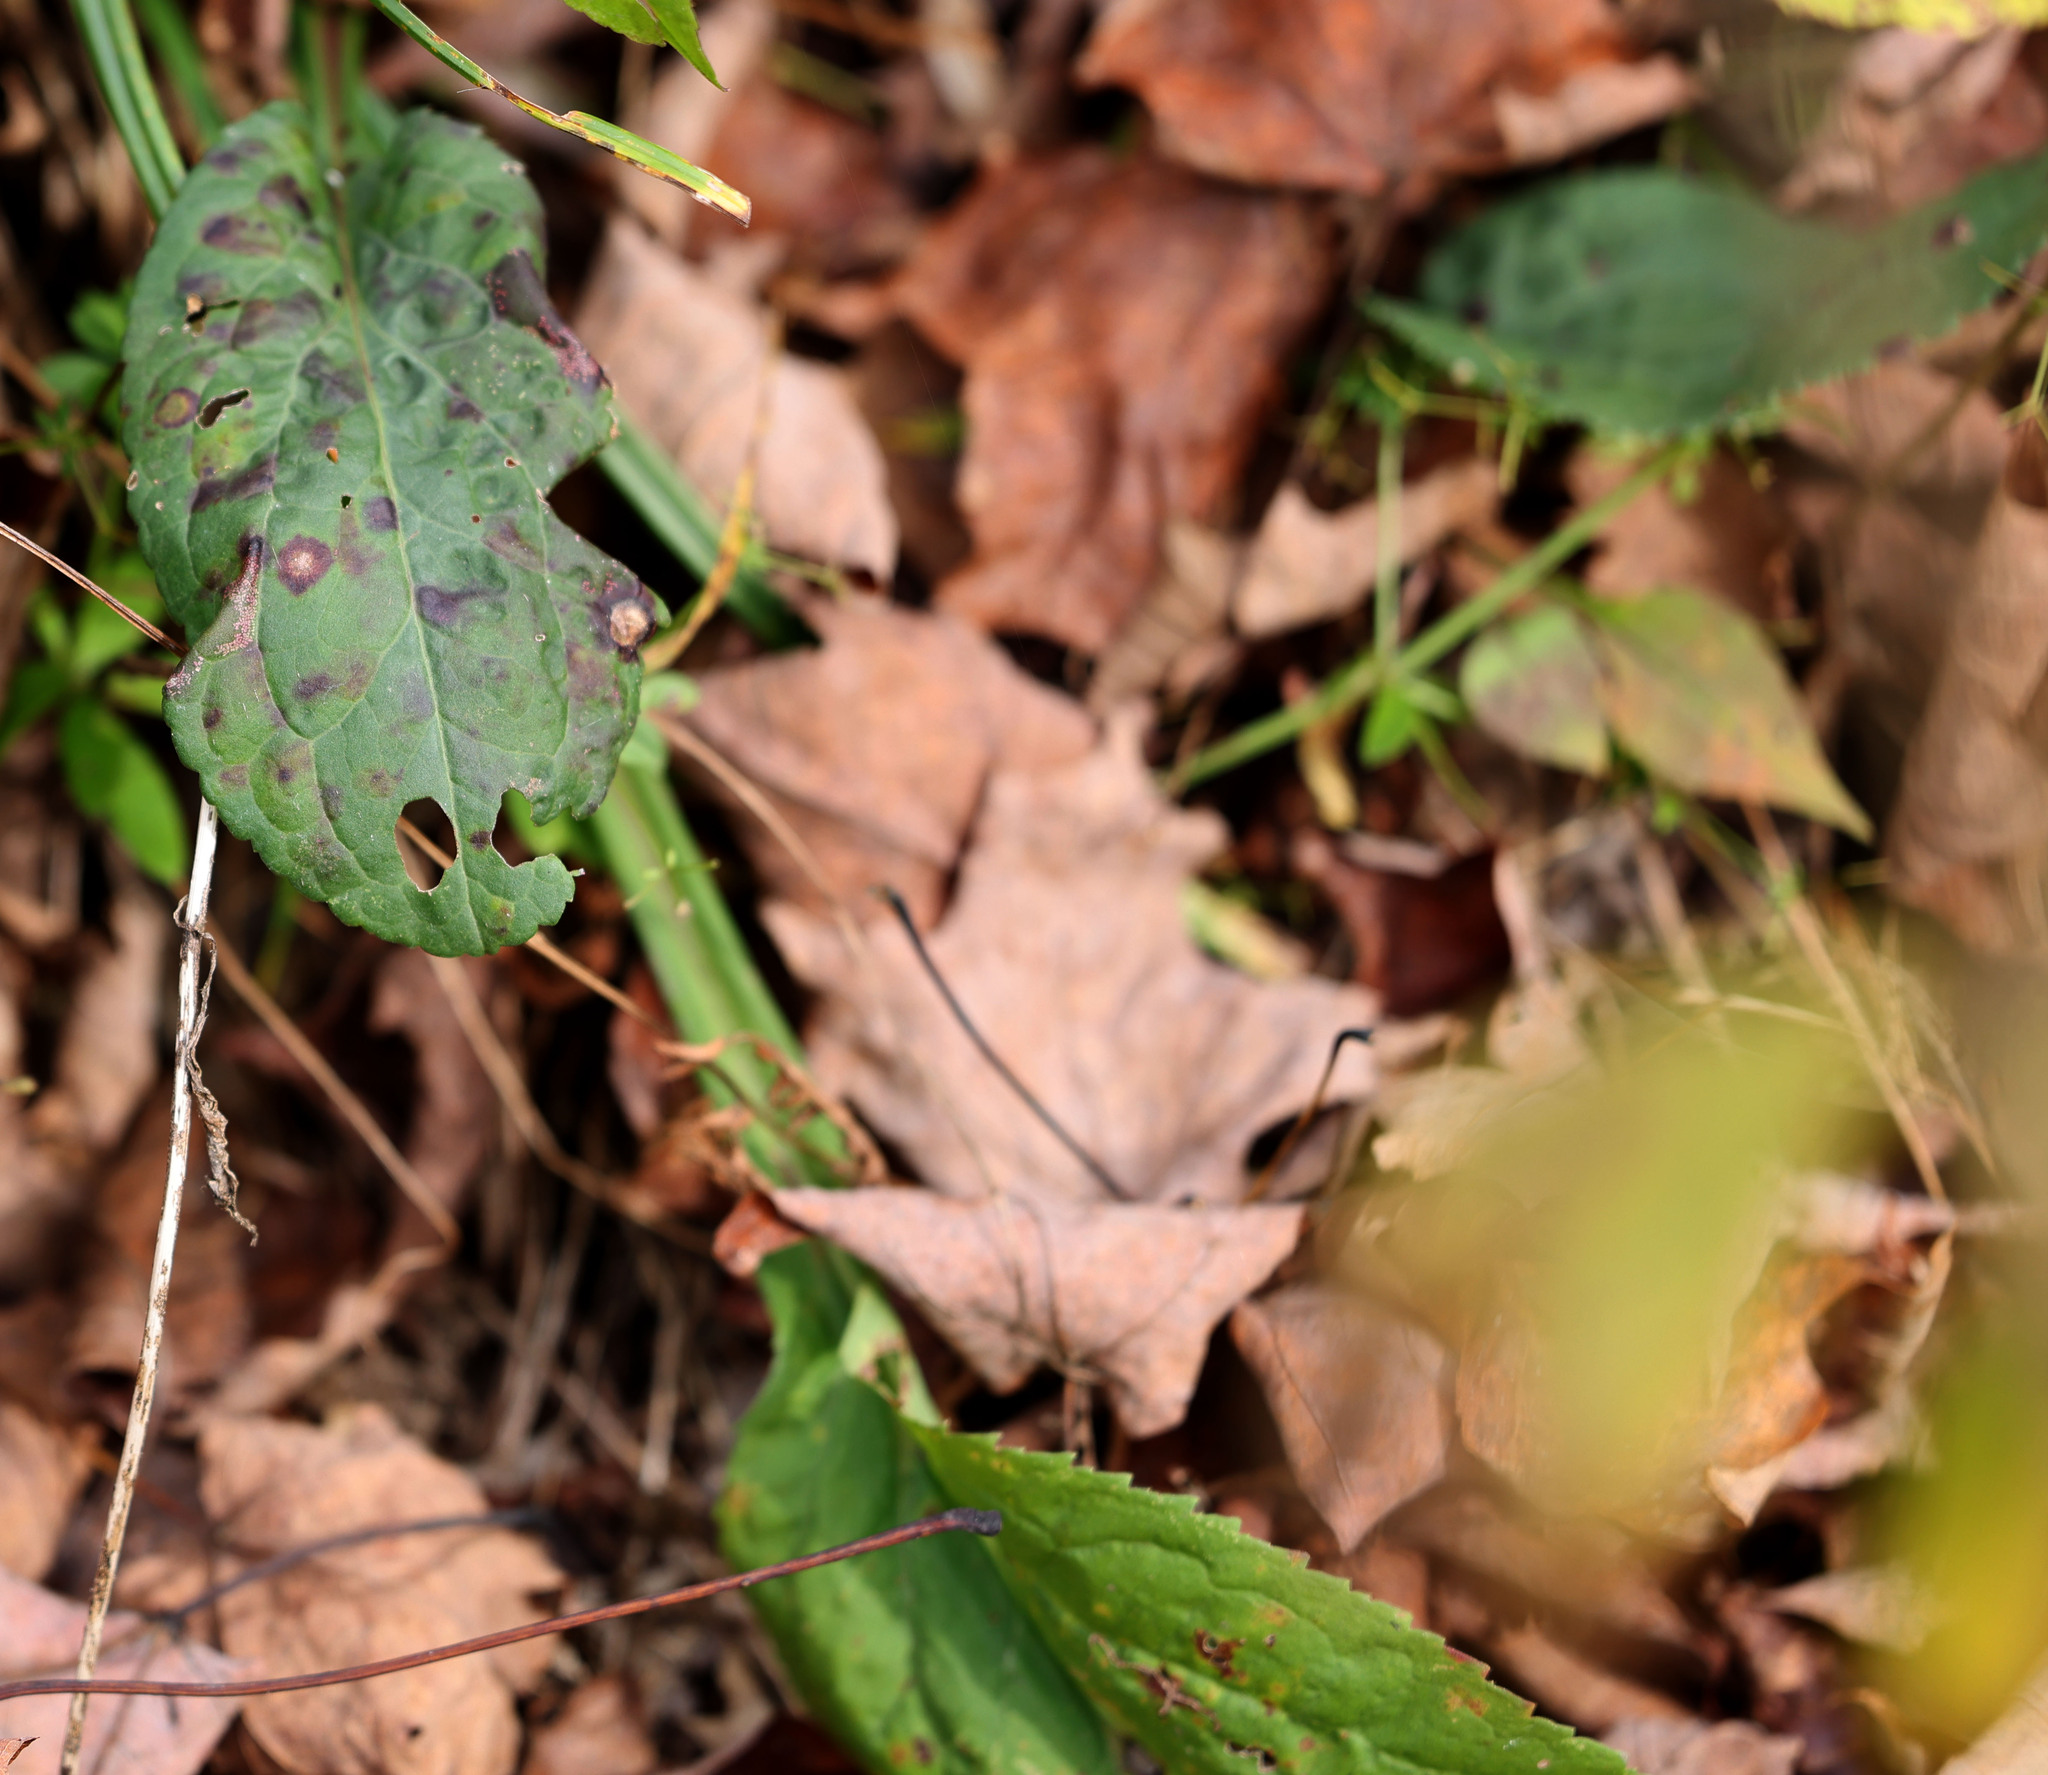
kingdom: Plantae
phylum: Tracheophyta
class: Magnoliopsida
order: Asterales
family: Asteraceae
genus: Solidago
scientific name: Solidago patula
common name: Rough-leaf goldenrod
